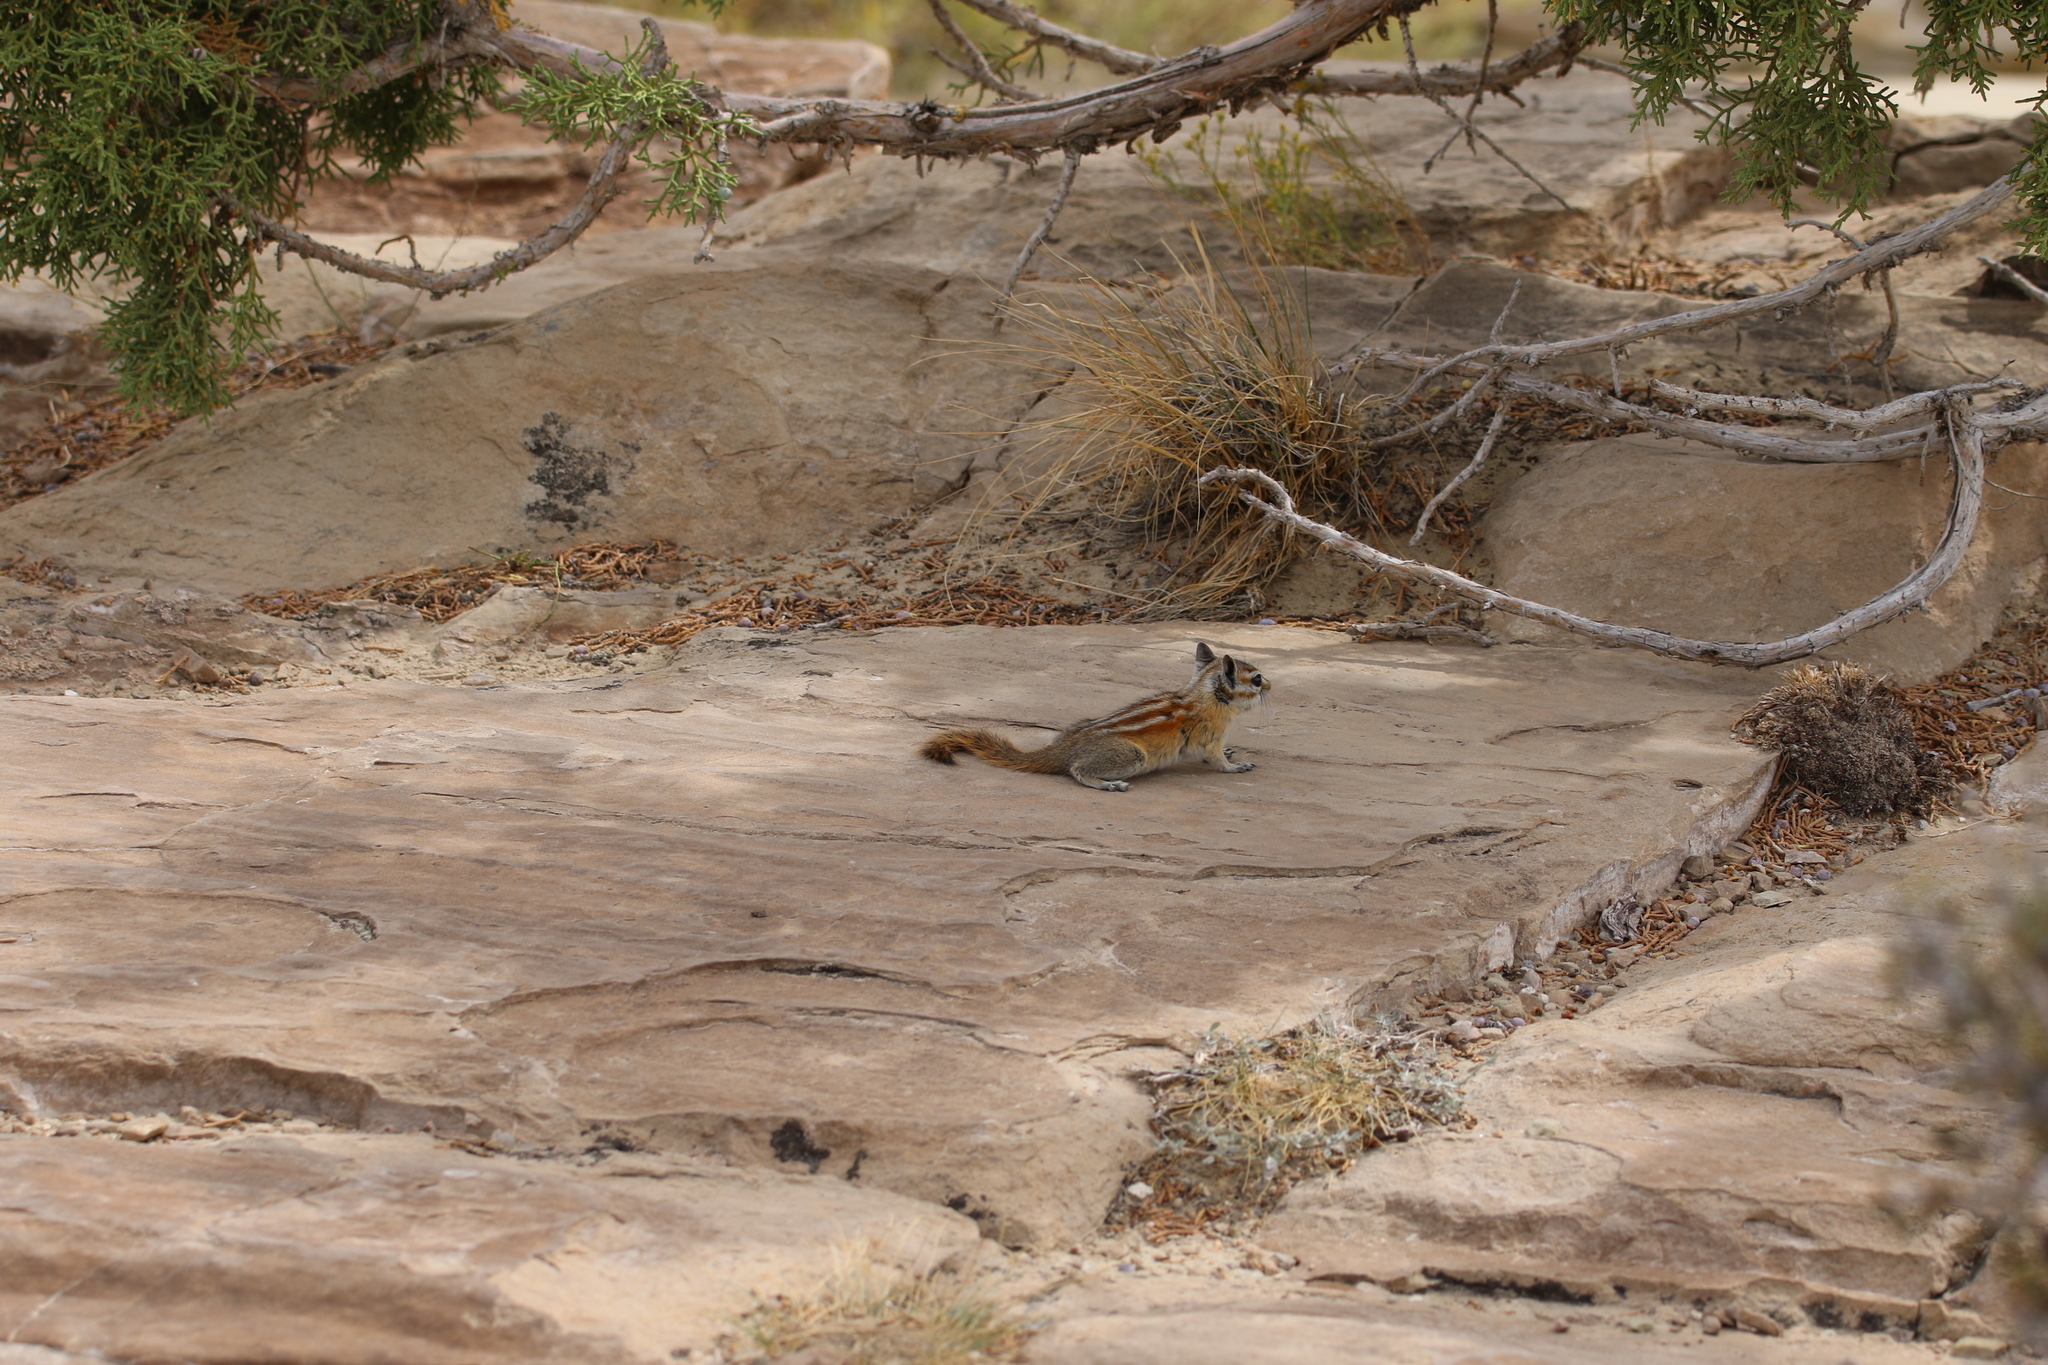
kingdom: Animalia
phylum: Chordata
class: Mammalia
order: Rodentia
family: Sciuridae
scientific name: Sciuridae
